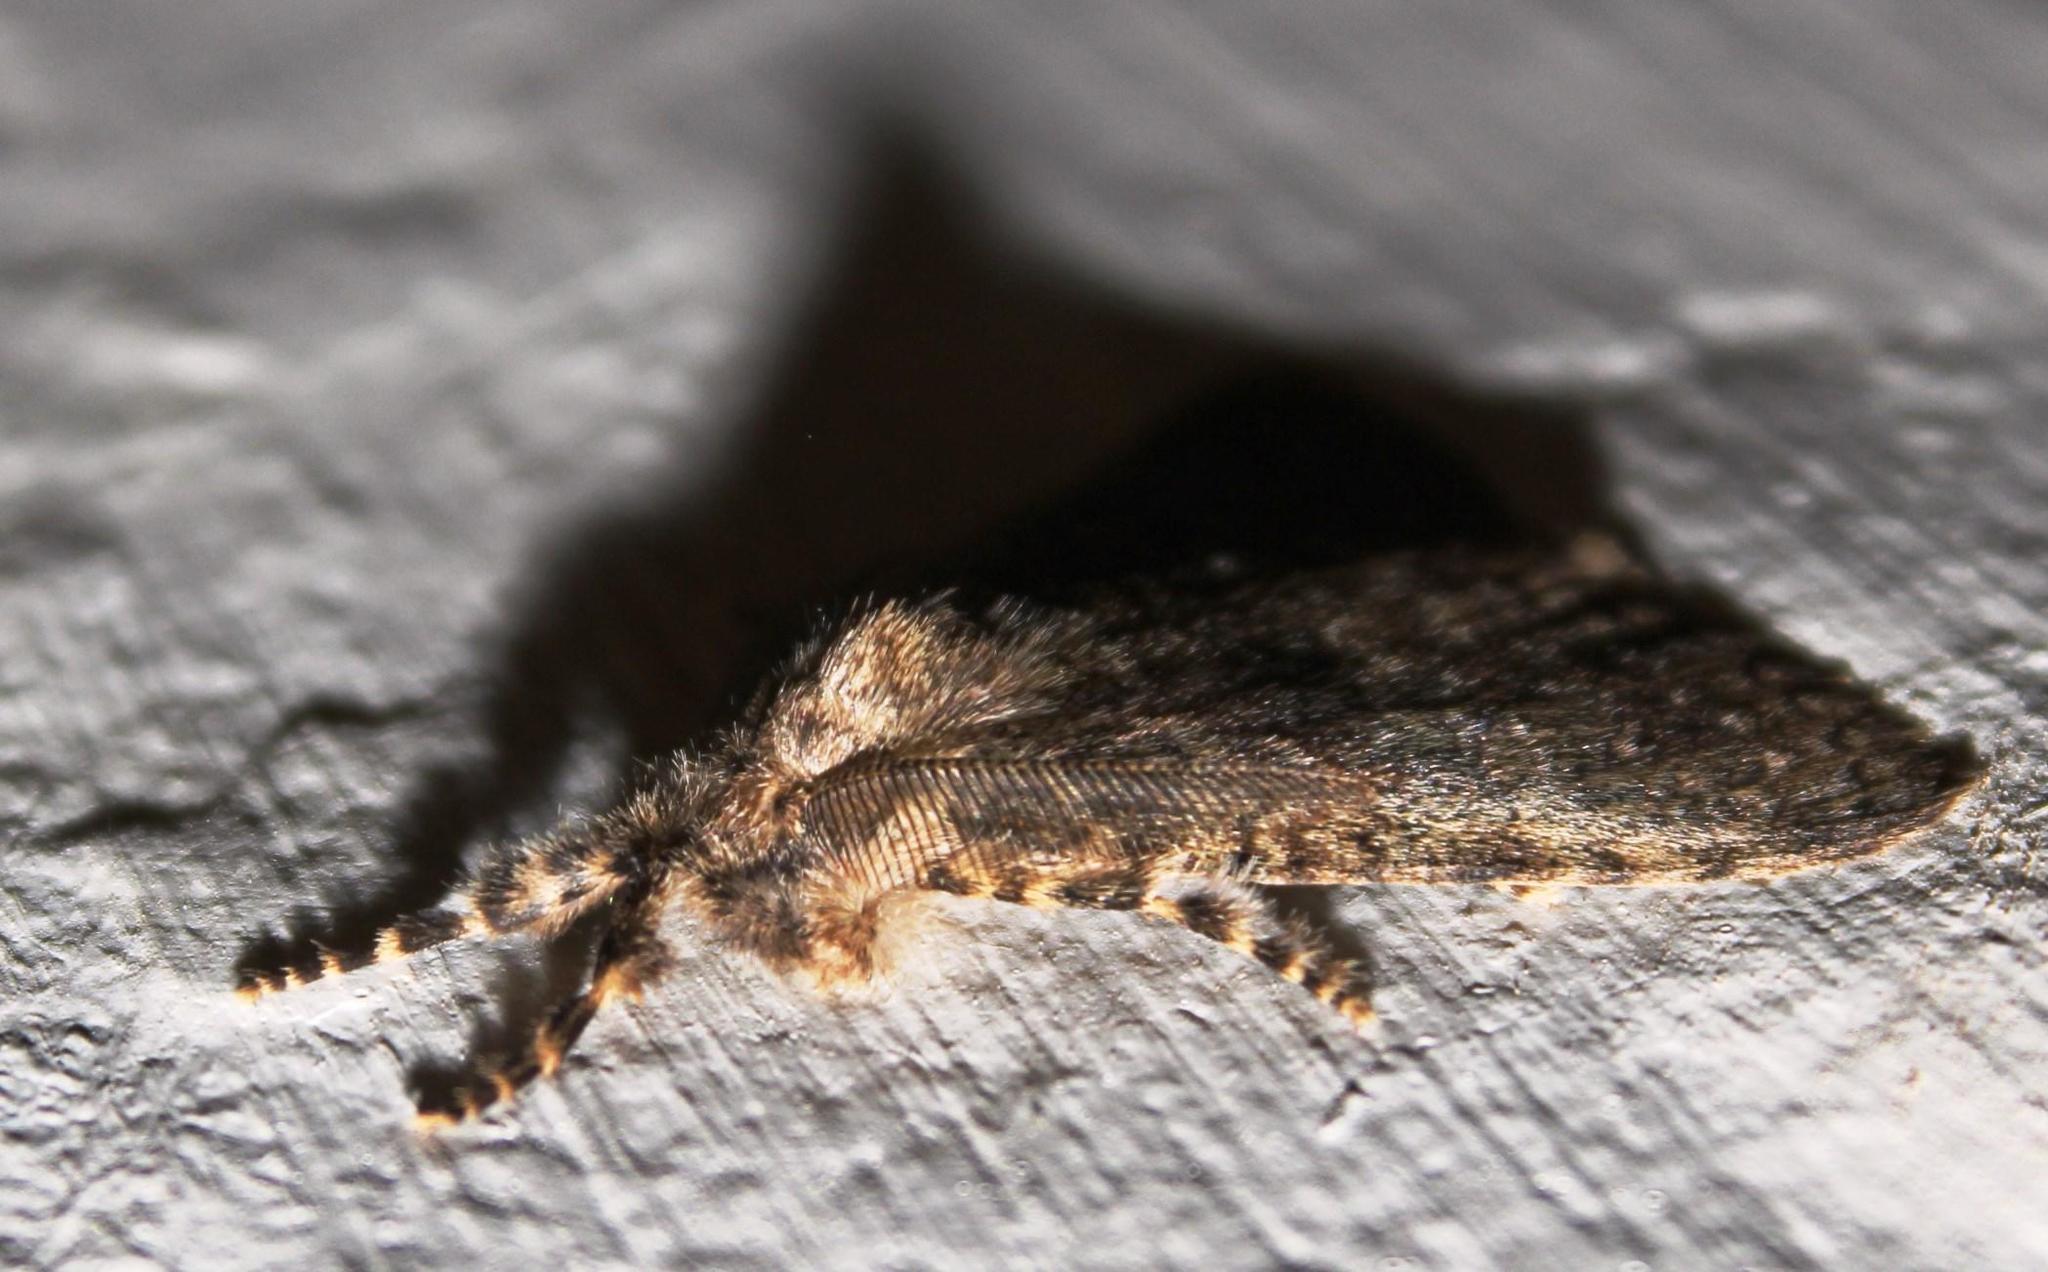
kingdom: Animalia
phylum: Arthropoda
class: Insecta
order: Lepidoptera
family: Erebidae
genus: Laelia
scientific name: Laelia fusca
